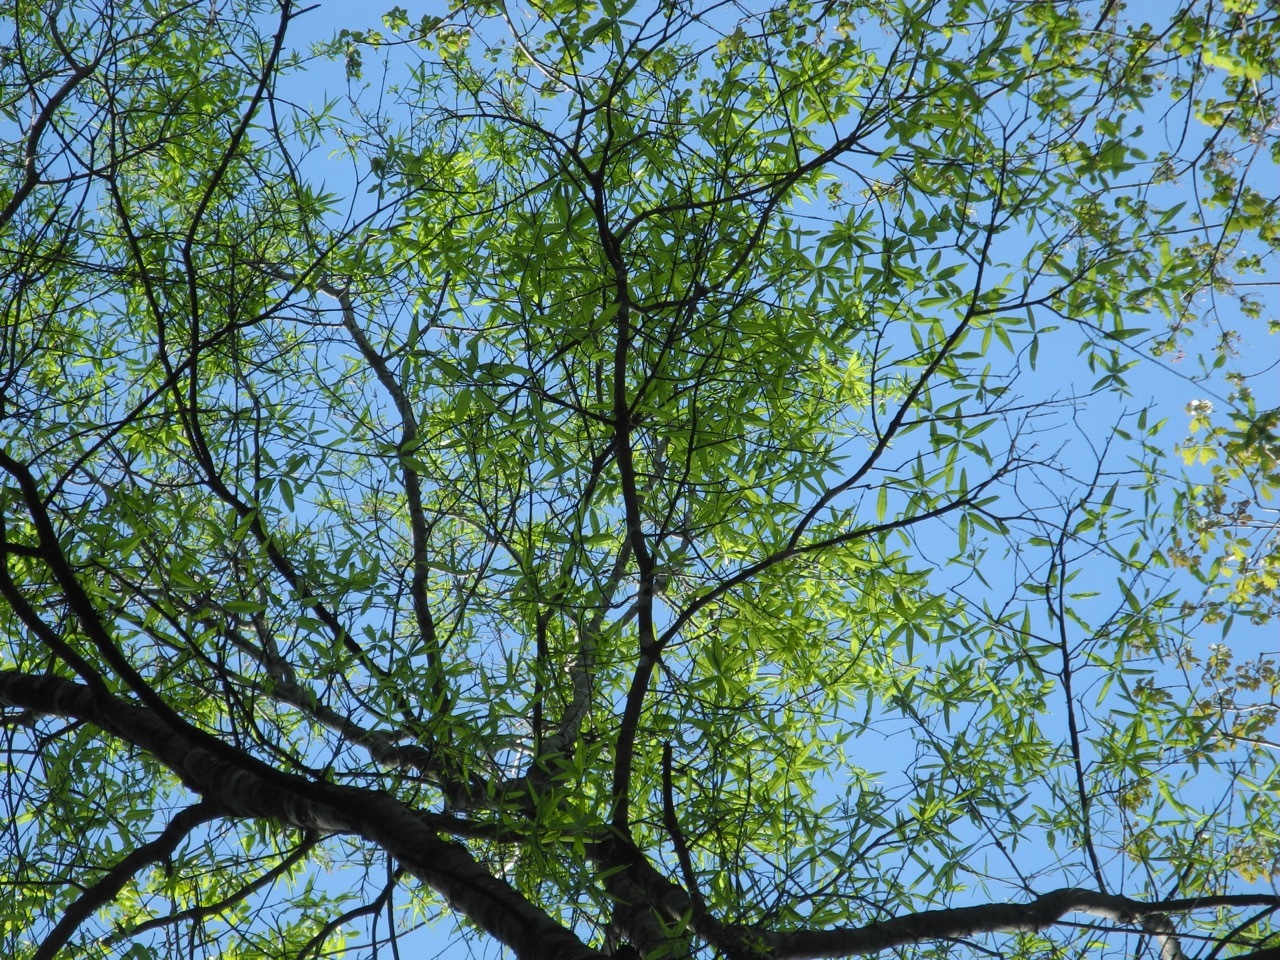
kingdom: Plantae
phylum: Tracheophyta
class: Magnoliopsida
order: Fagales
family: Fagaceae
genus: Quercus
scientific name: Quercus phellos
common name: Willow oak
